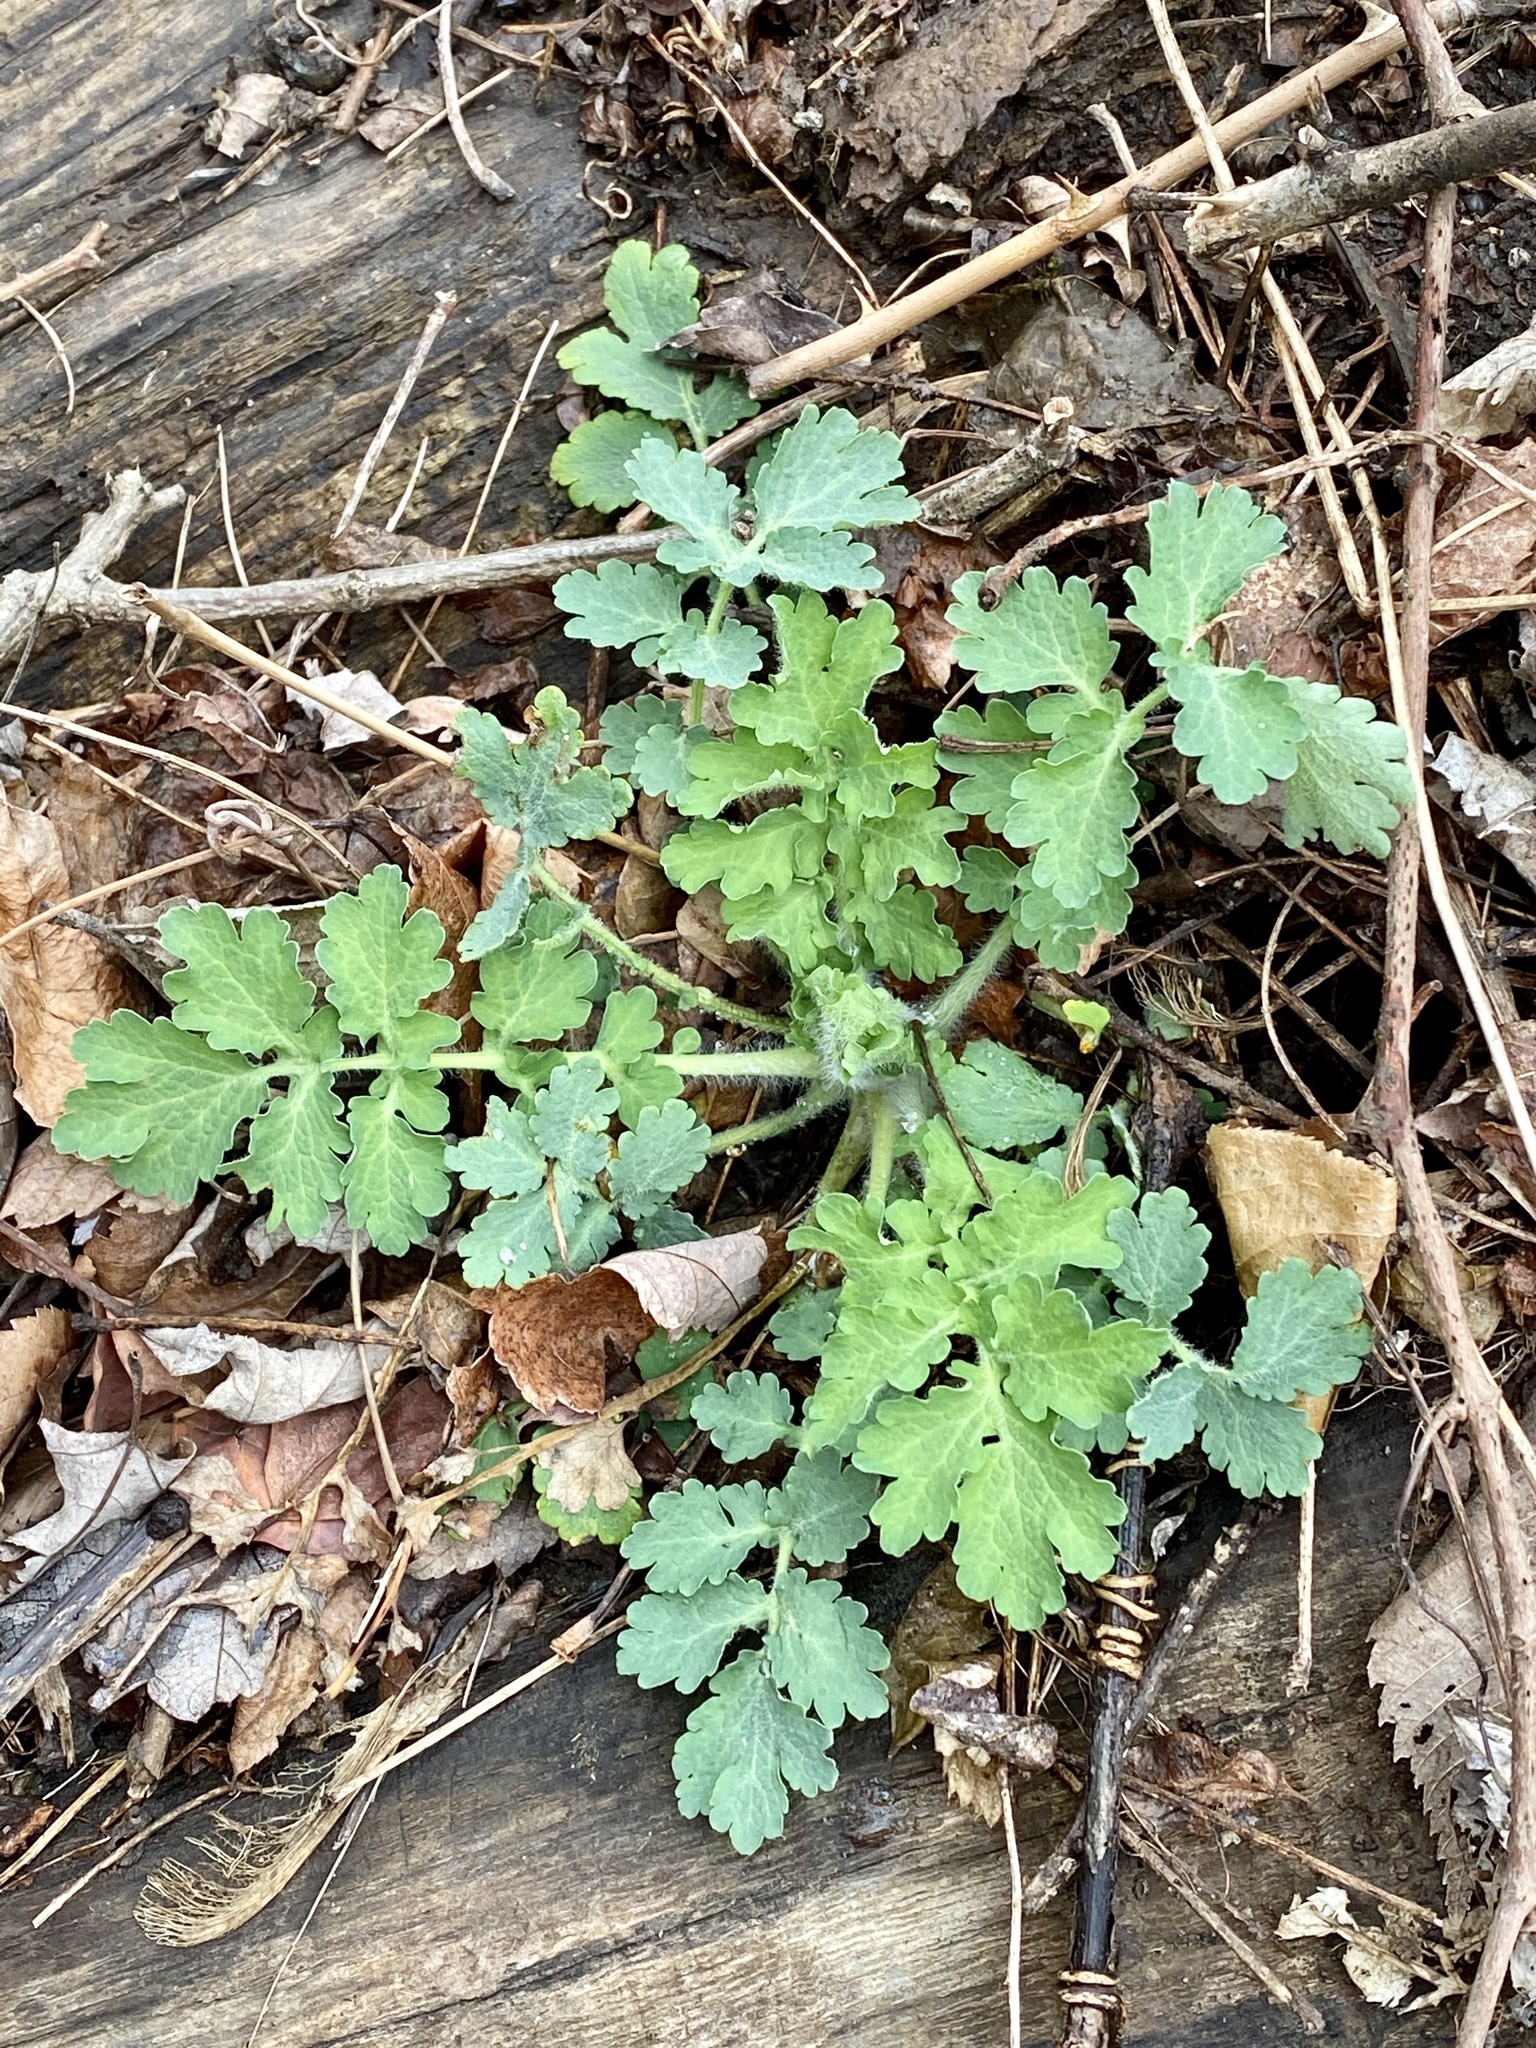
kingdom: Plantae
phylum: Tracheophyta
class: Magnoliopsida
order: Ranunculales
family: Papaveraceae
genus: Chelidonium
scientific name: Chelidonium majus
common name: Greater celandine
